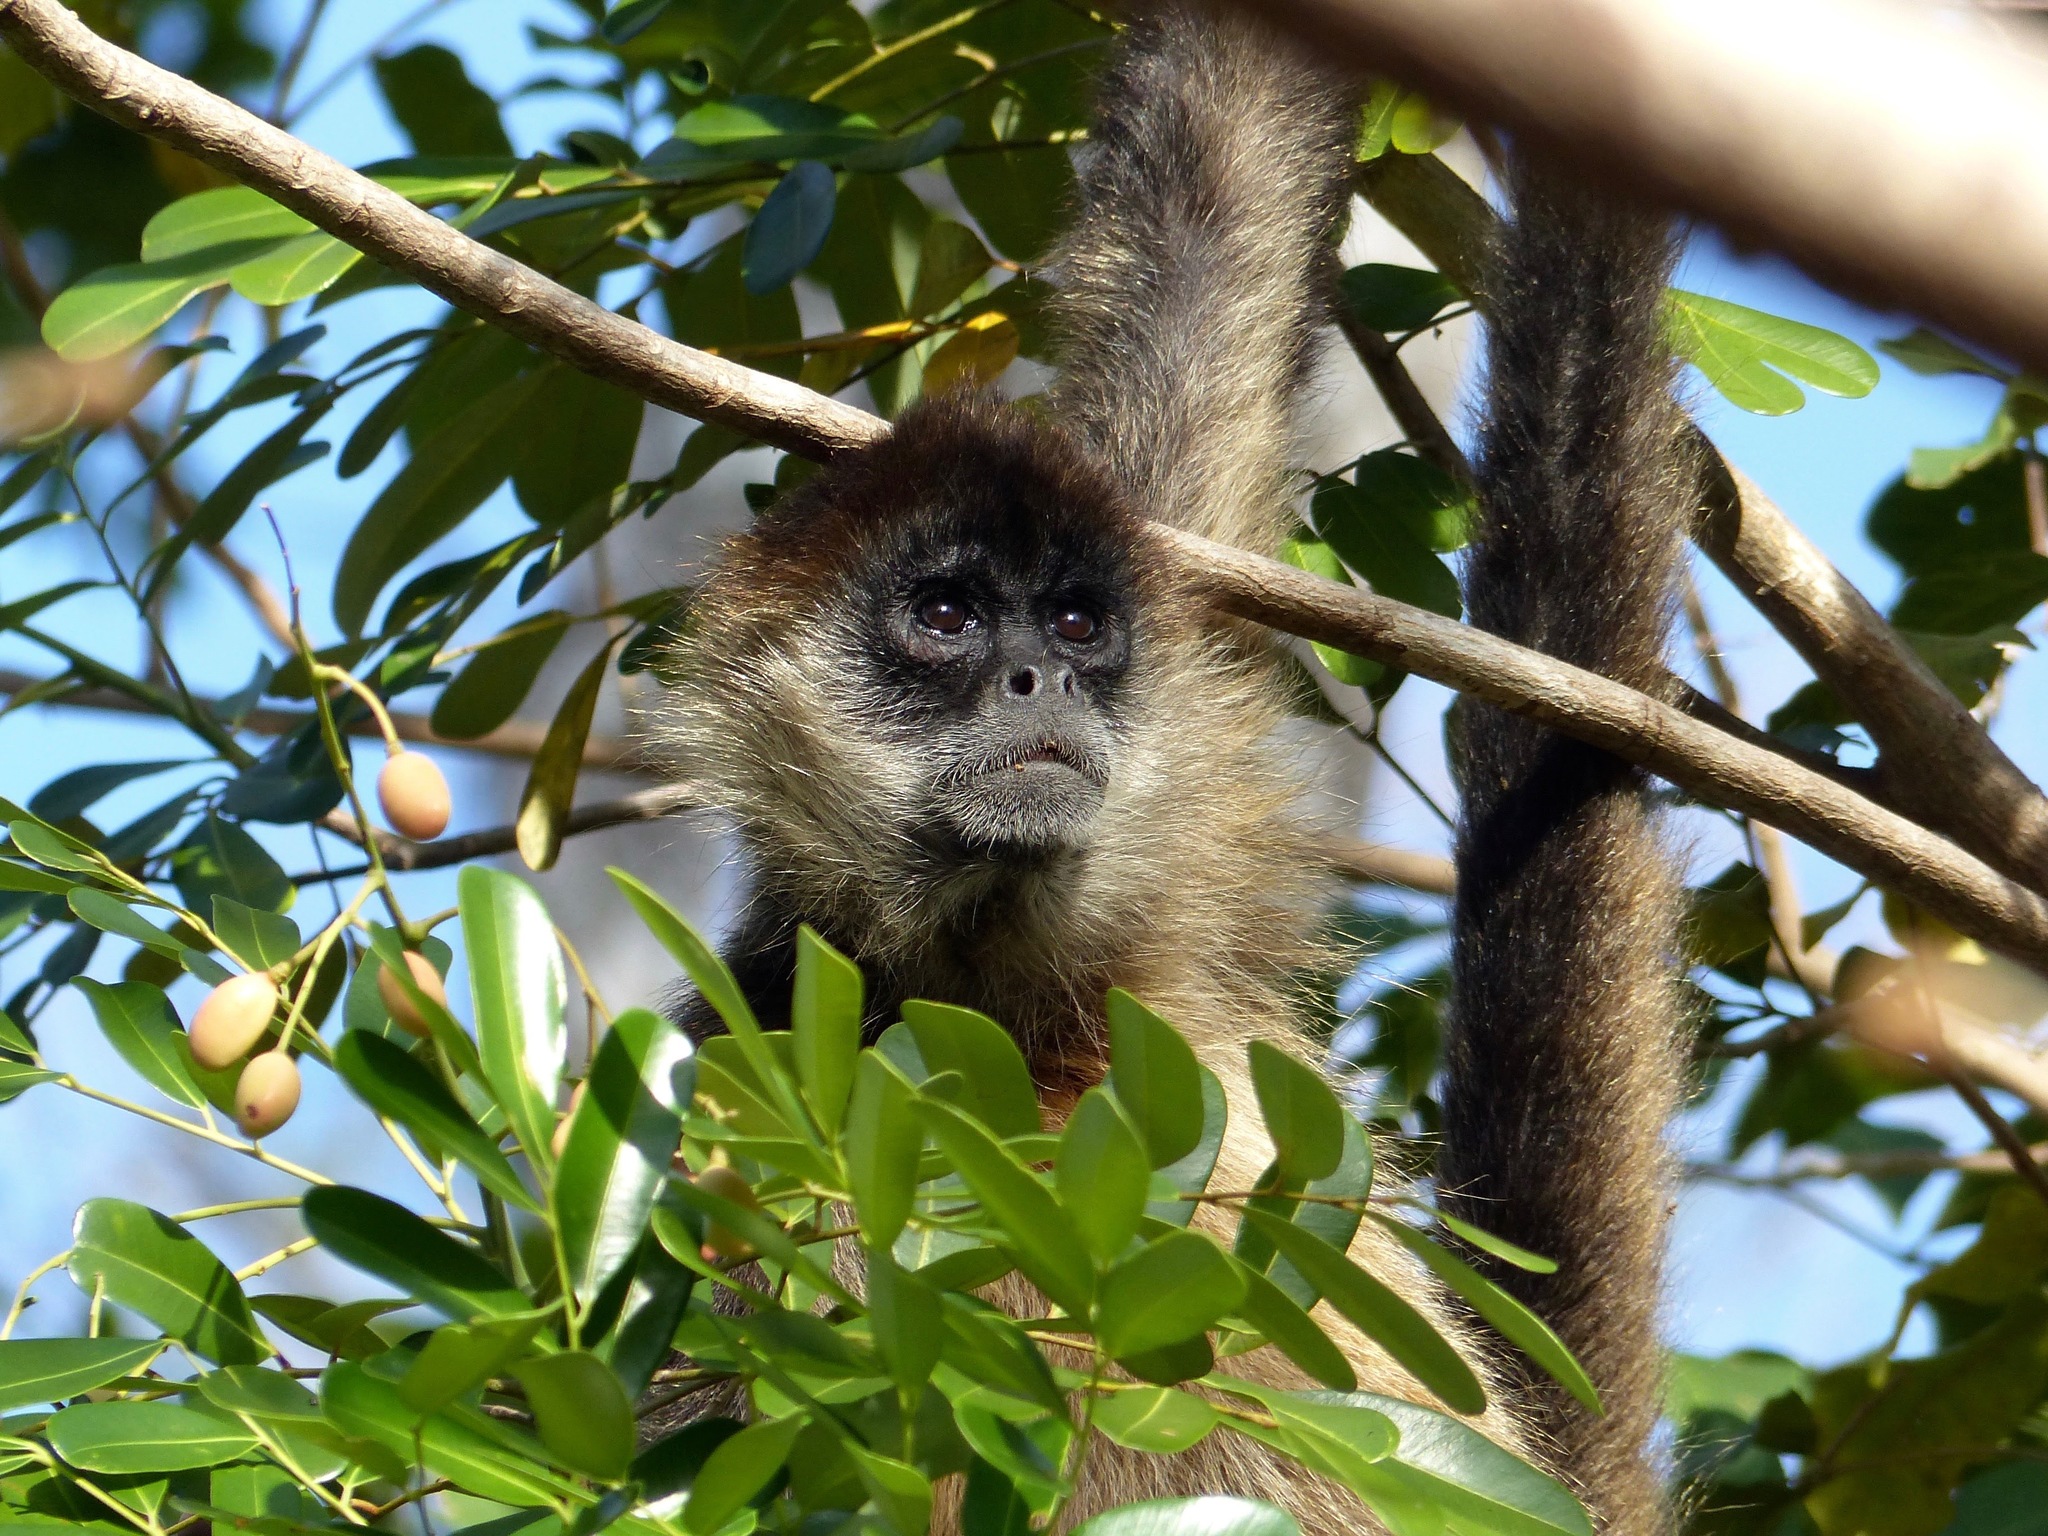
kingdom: Animalia
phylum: Chordata
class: Mammalia
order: Primates
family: Atelidae
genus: Ateles
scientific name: Ateles geoffroyi
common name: Black-handed spider monkey
